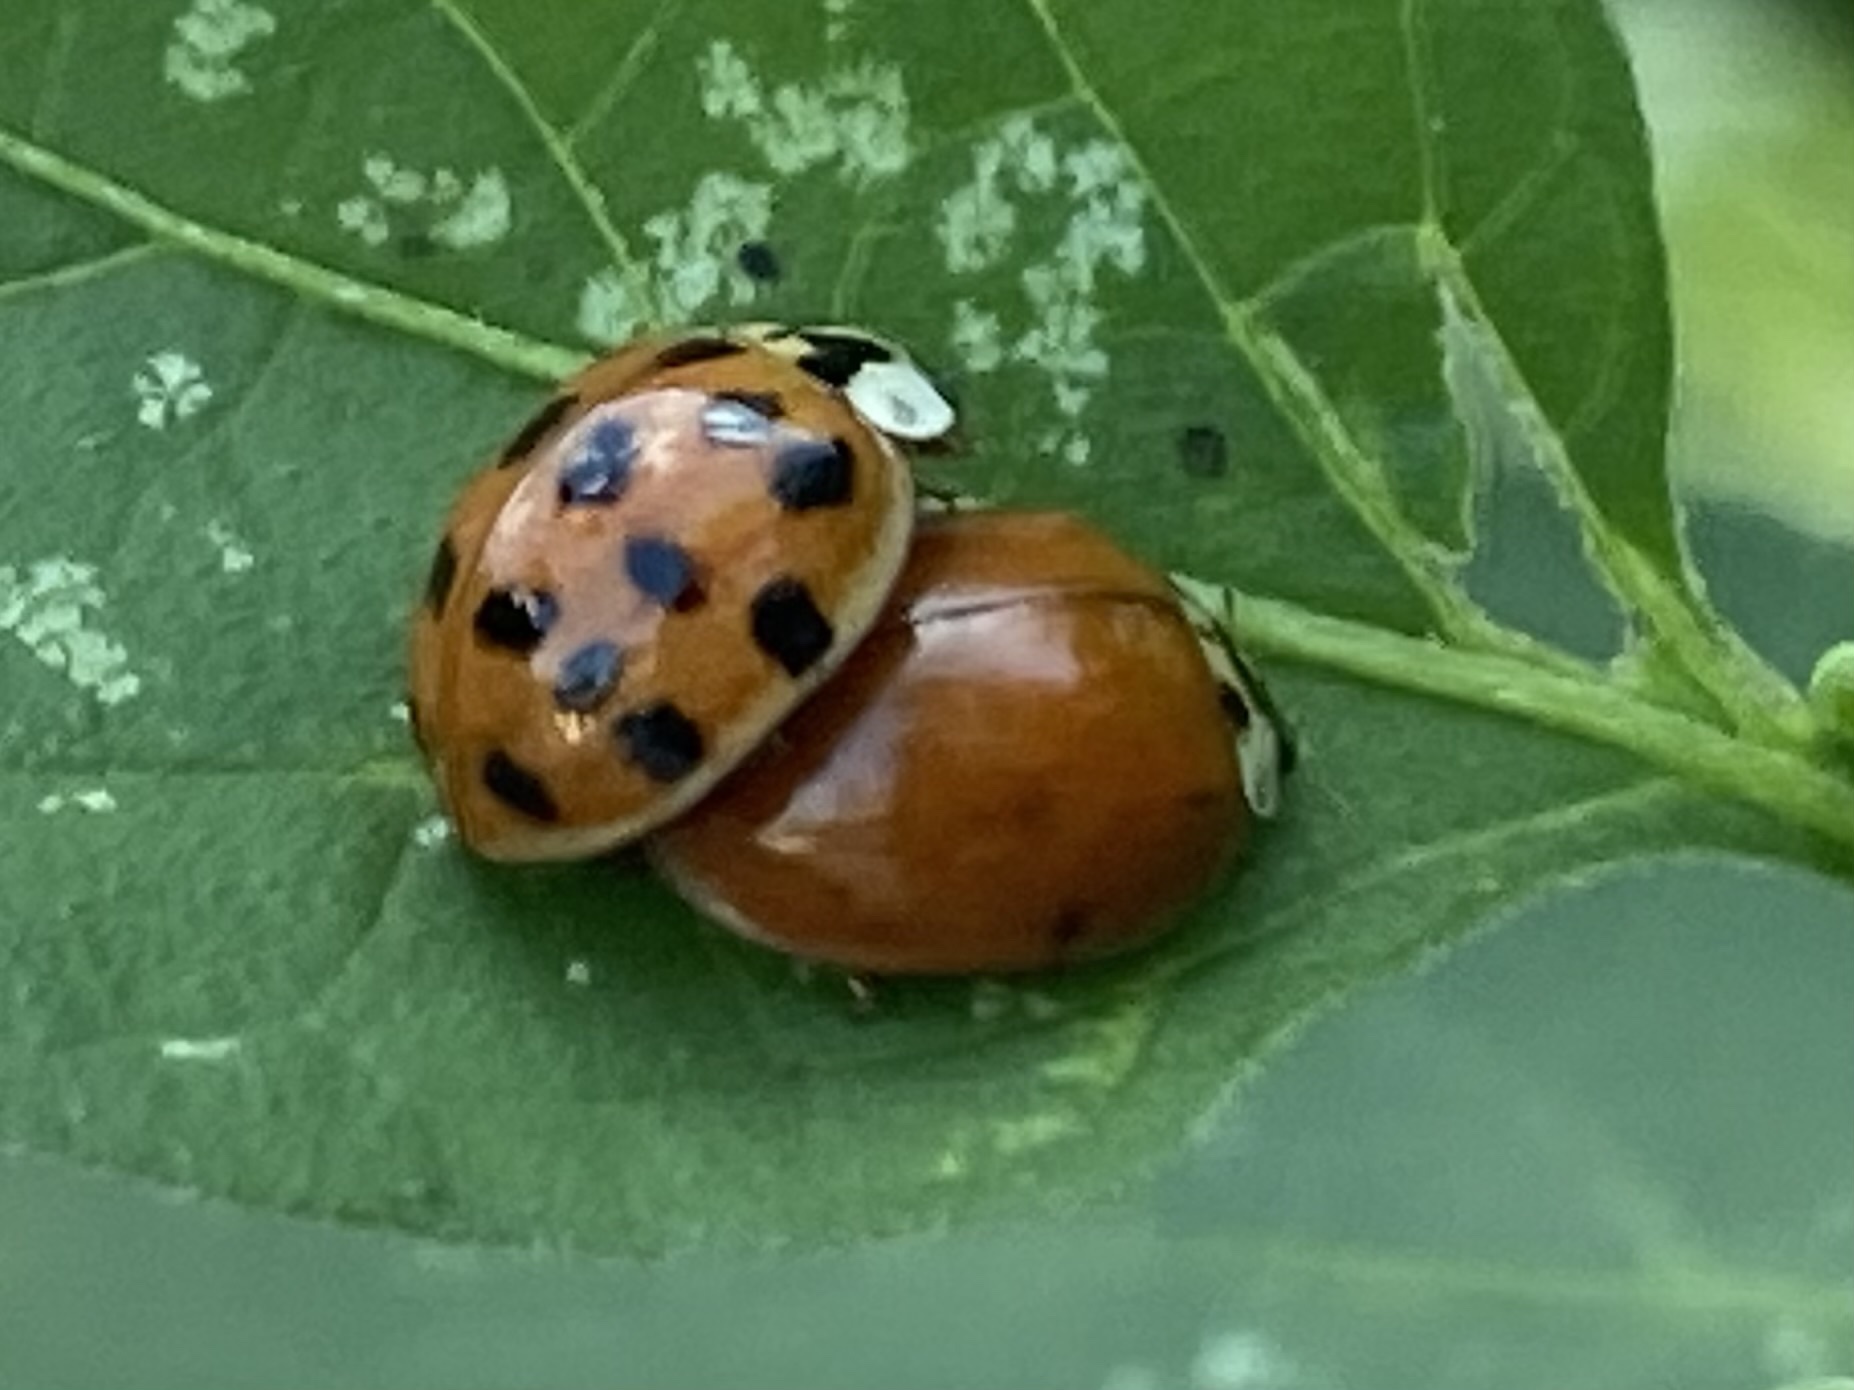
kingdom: Animalia
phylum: Arthropoda
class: Insecta
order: Coleoptera
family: Coccinellidae
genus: Harmonia
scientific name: Harmonia axyridis
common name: Harlequin ladybird
